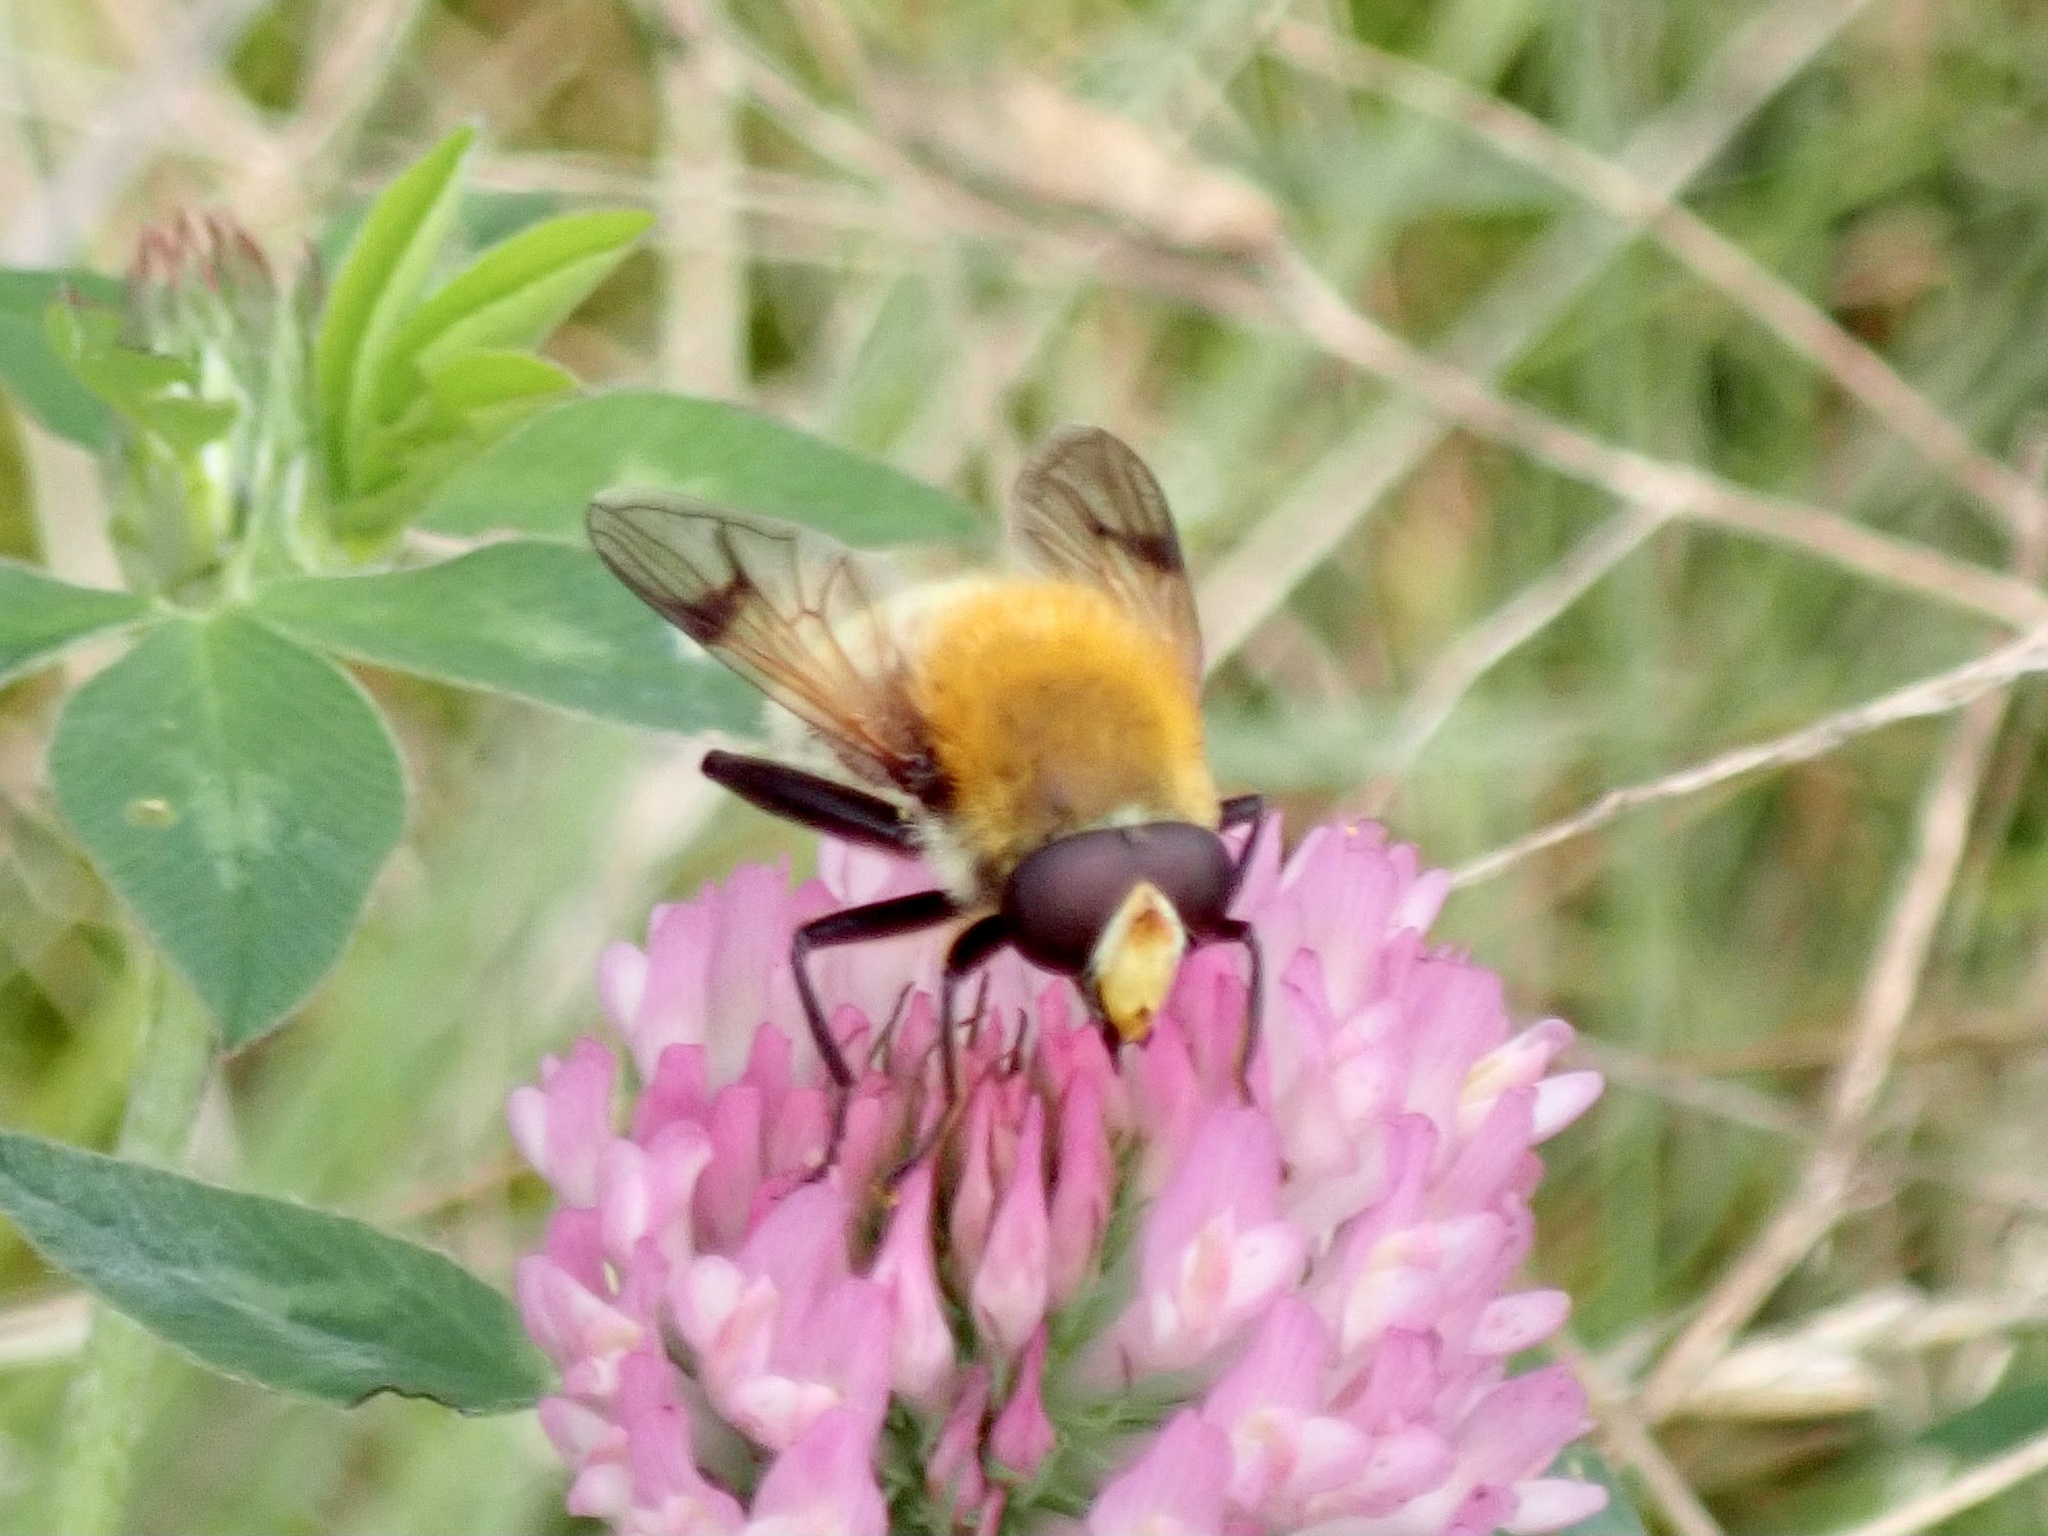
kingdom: Animalia
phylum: Arthropoda
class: Insecta
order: Diptera
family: Syrphidae
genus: Sericomyia
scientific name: Sericomyia superbiens
